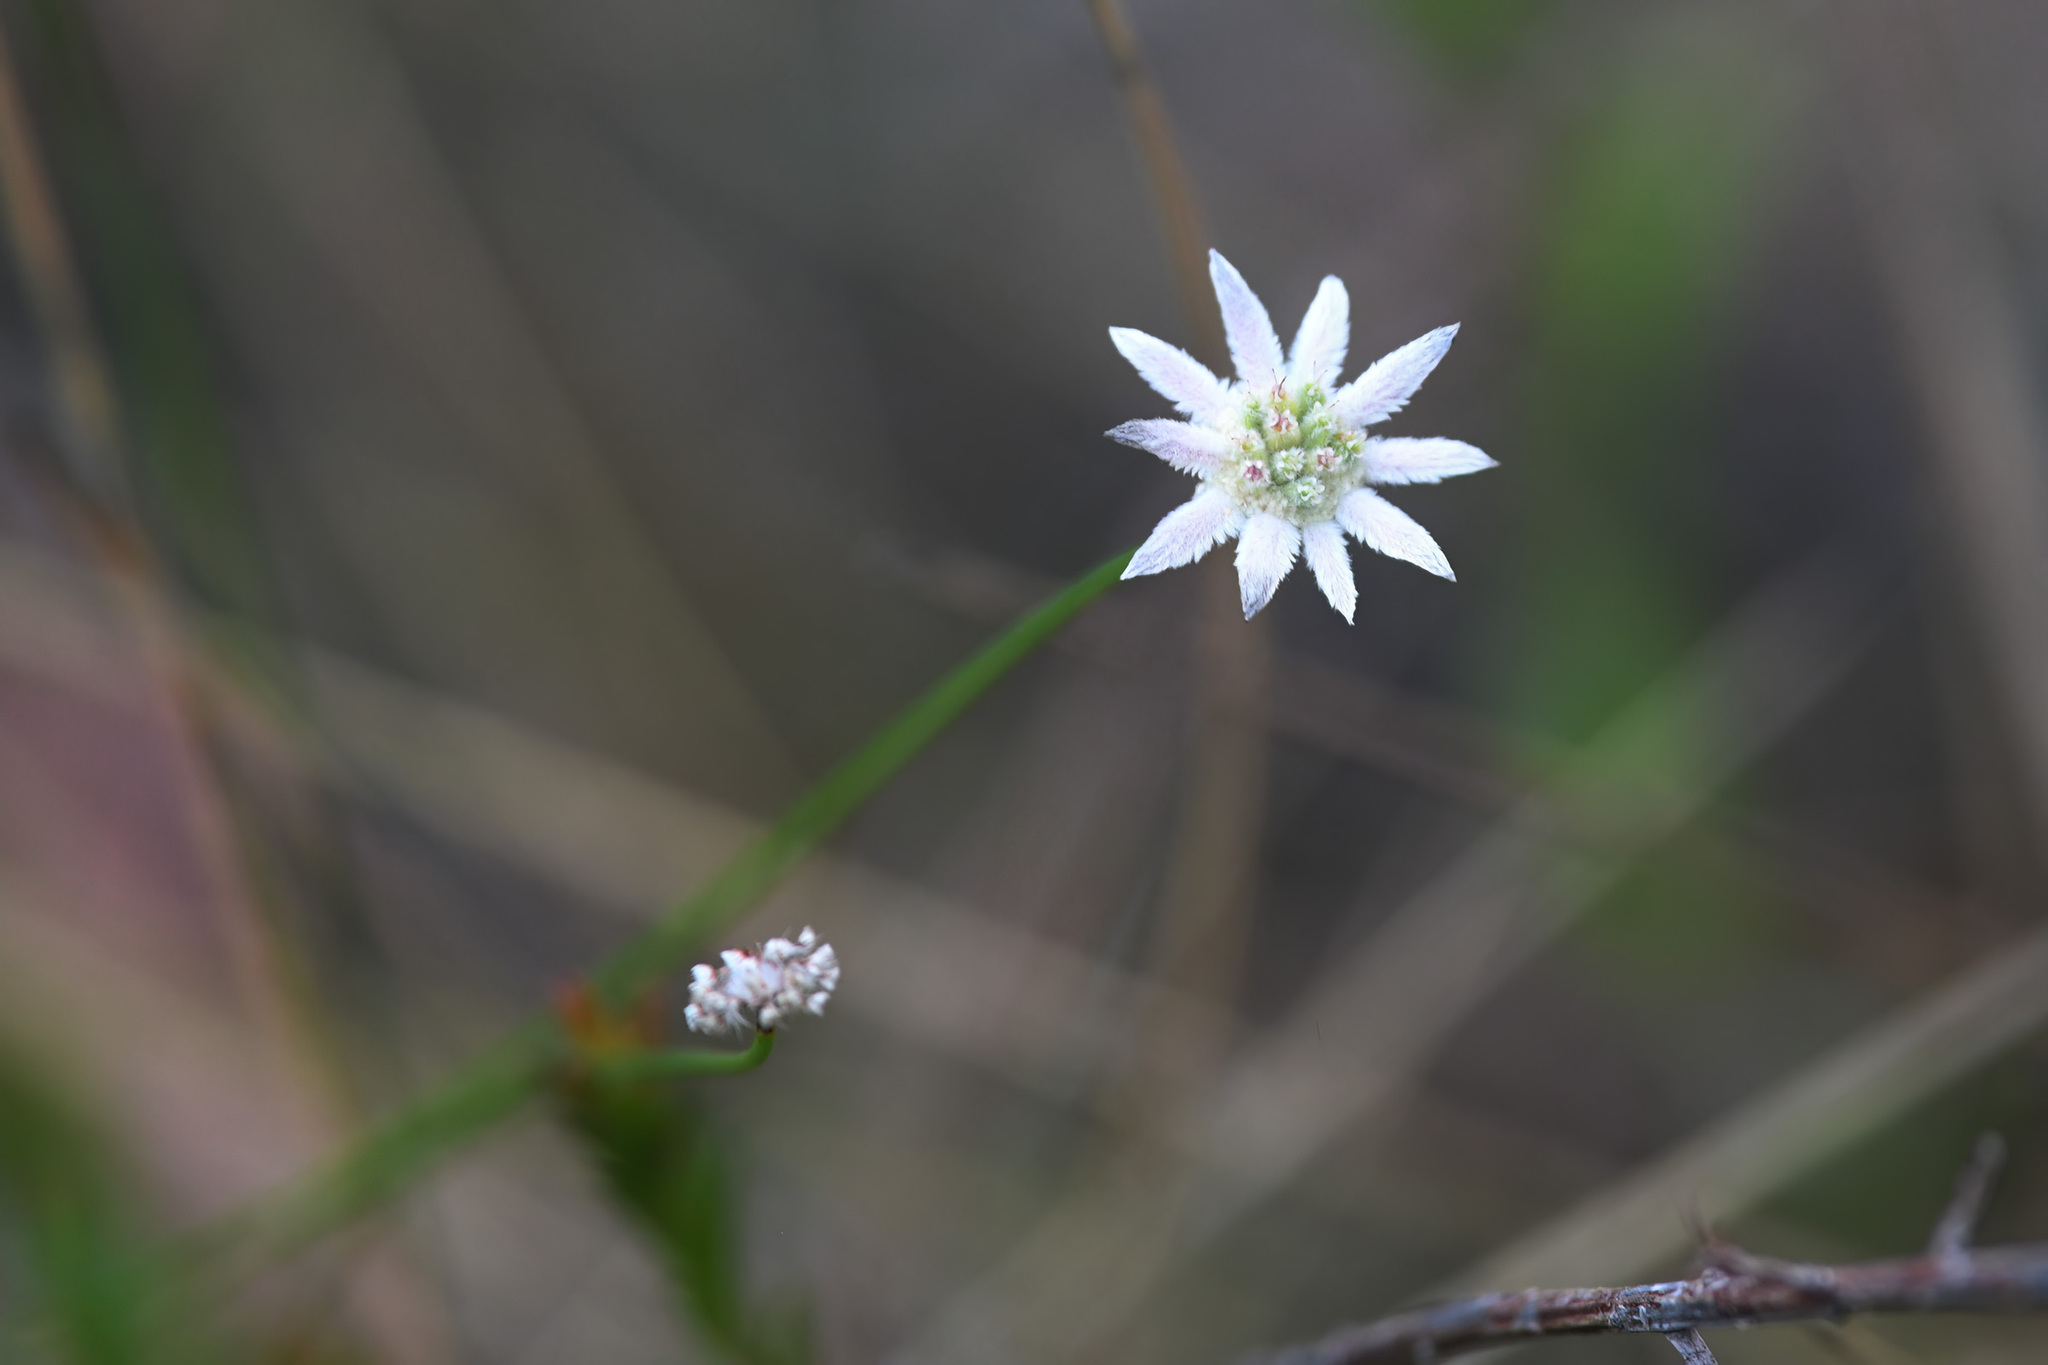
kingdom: Plantae
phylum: Tracheophyta
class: Magnoliopsida
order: Apiales
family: Apiaceae
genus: Actinotus
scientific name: Actinotus minor
